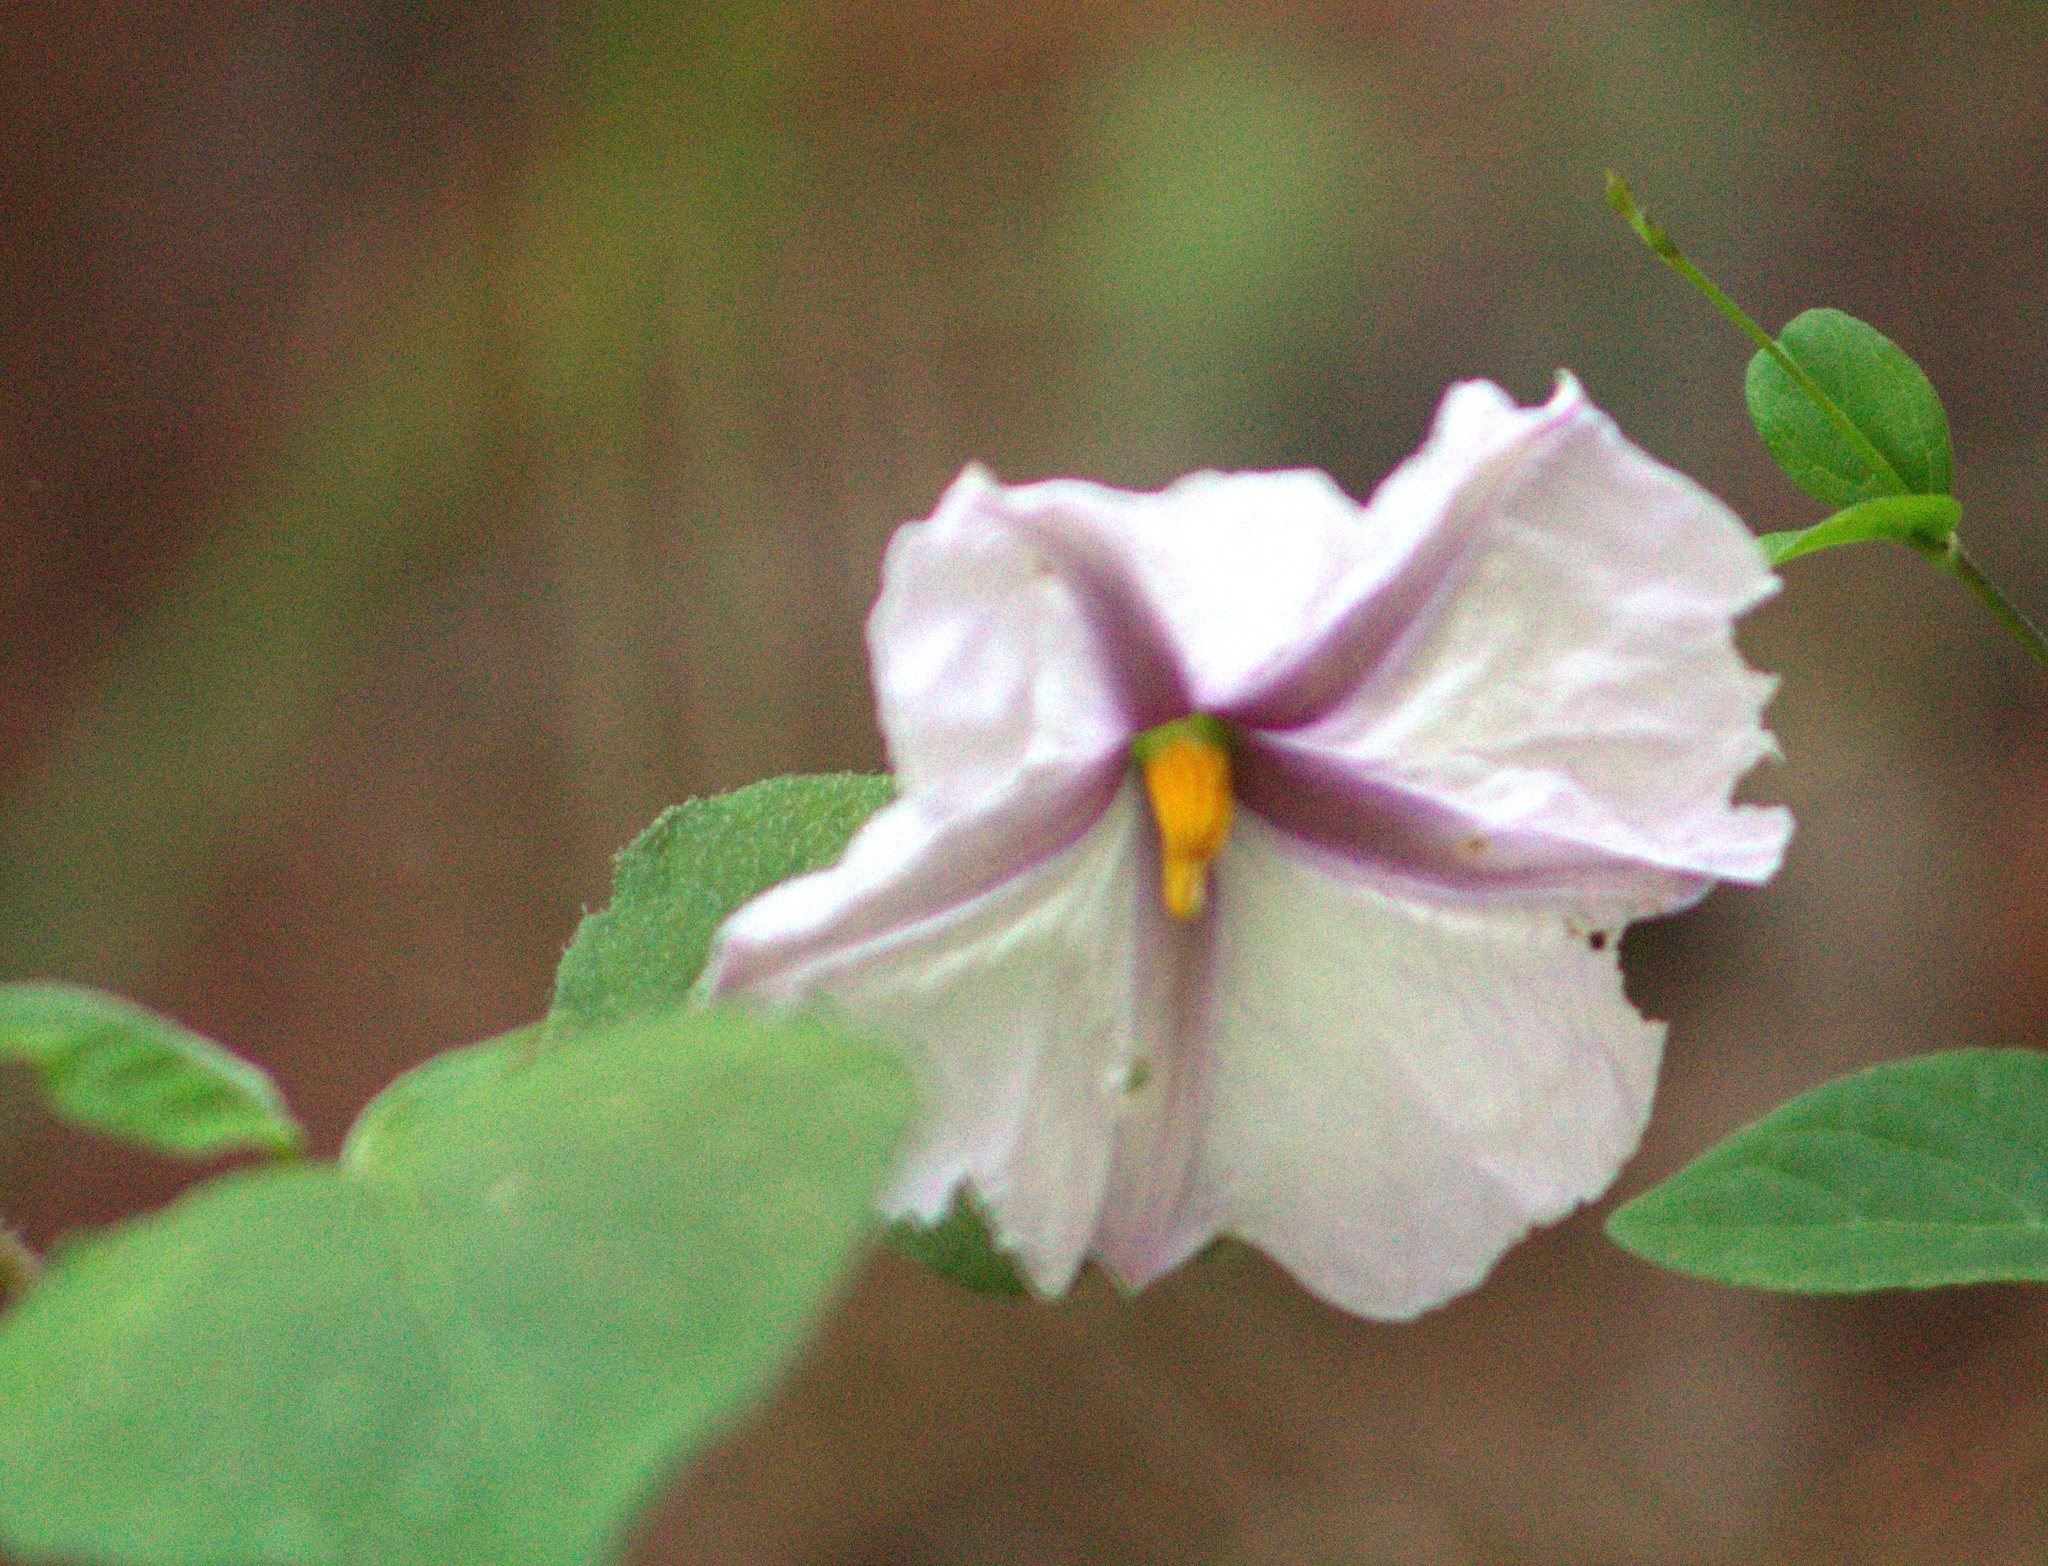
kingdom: Plantae
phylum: Tracheophyta
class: Magnoliopsida
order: Solanales
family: Solanaceae
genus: Lycianthes
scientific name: Lycianthes ciliolata
